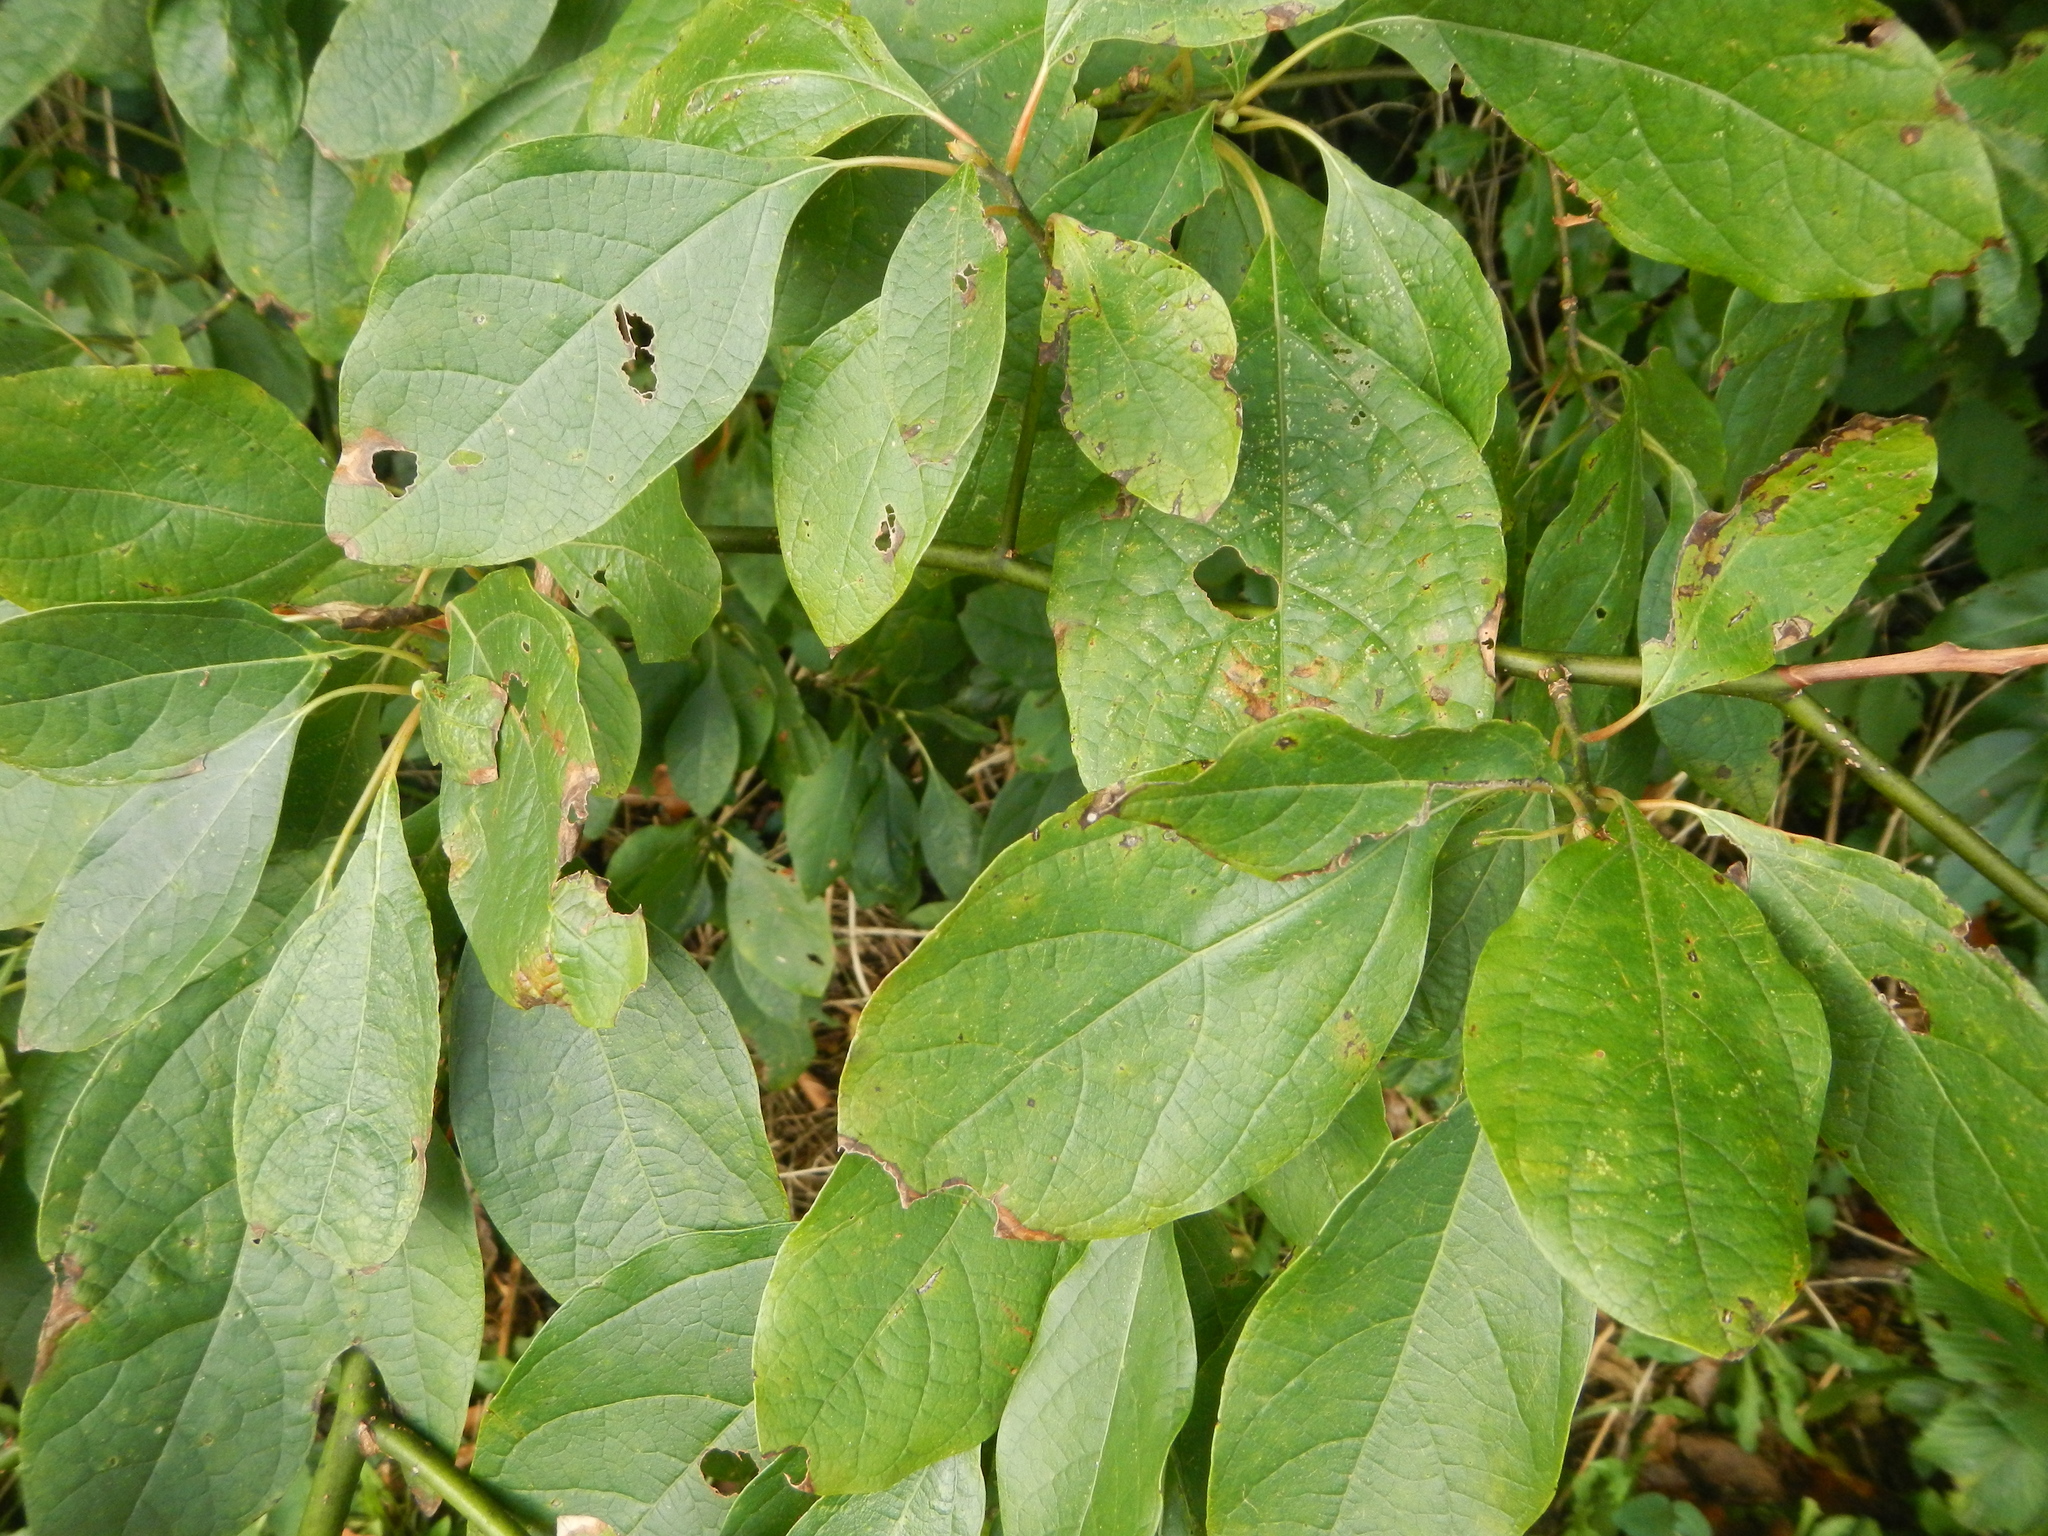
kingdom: Plantae
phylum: Tracheophyta
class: Magnoliopsida
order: Laurales
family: Lauraceae
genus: Sassafras
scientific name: Sassafras albidum
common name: Sassafras
